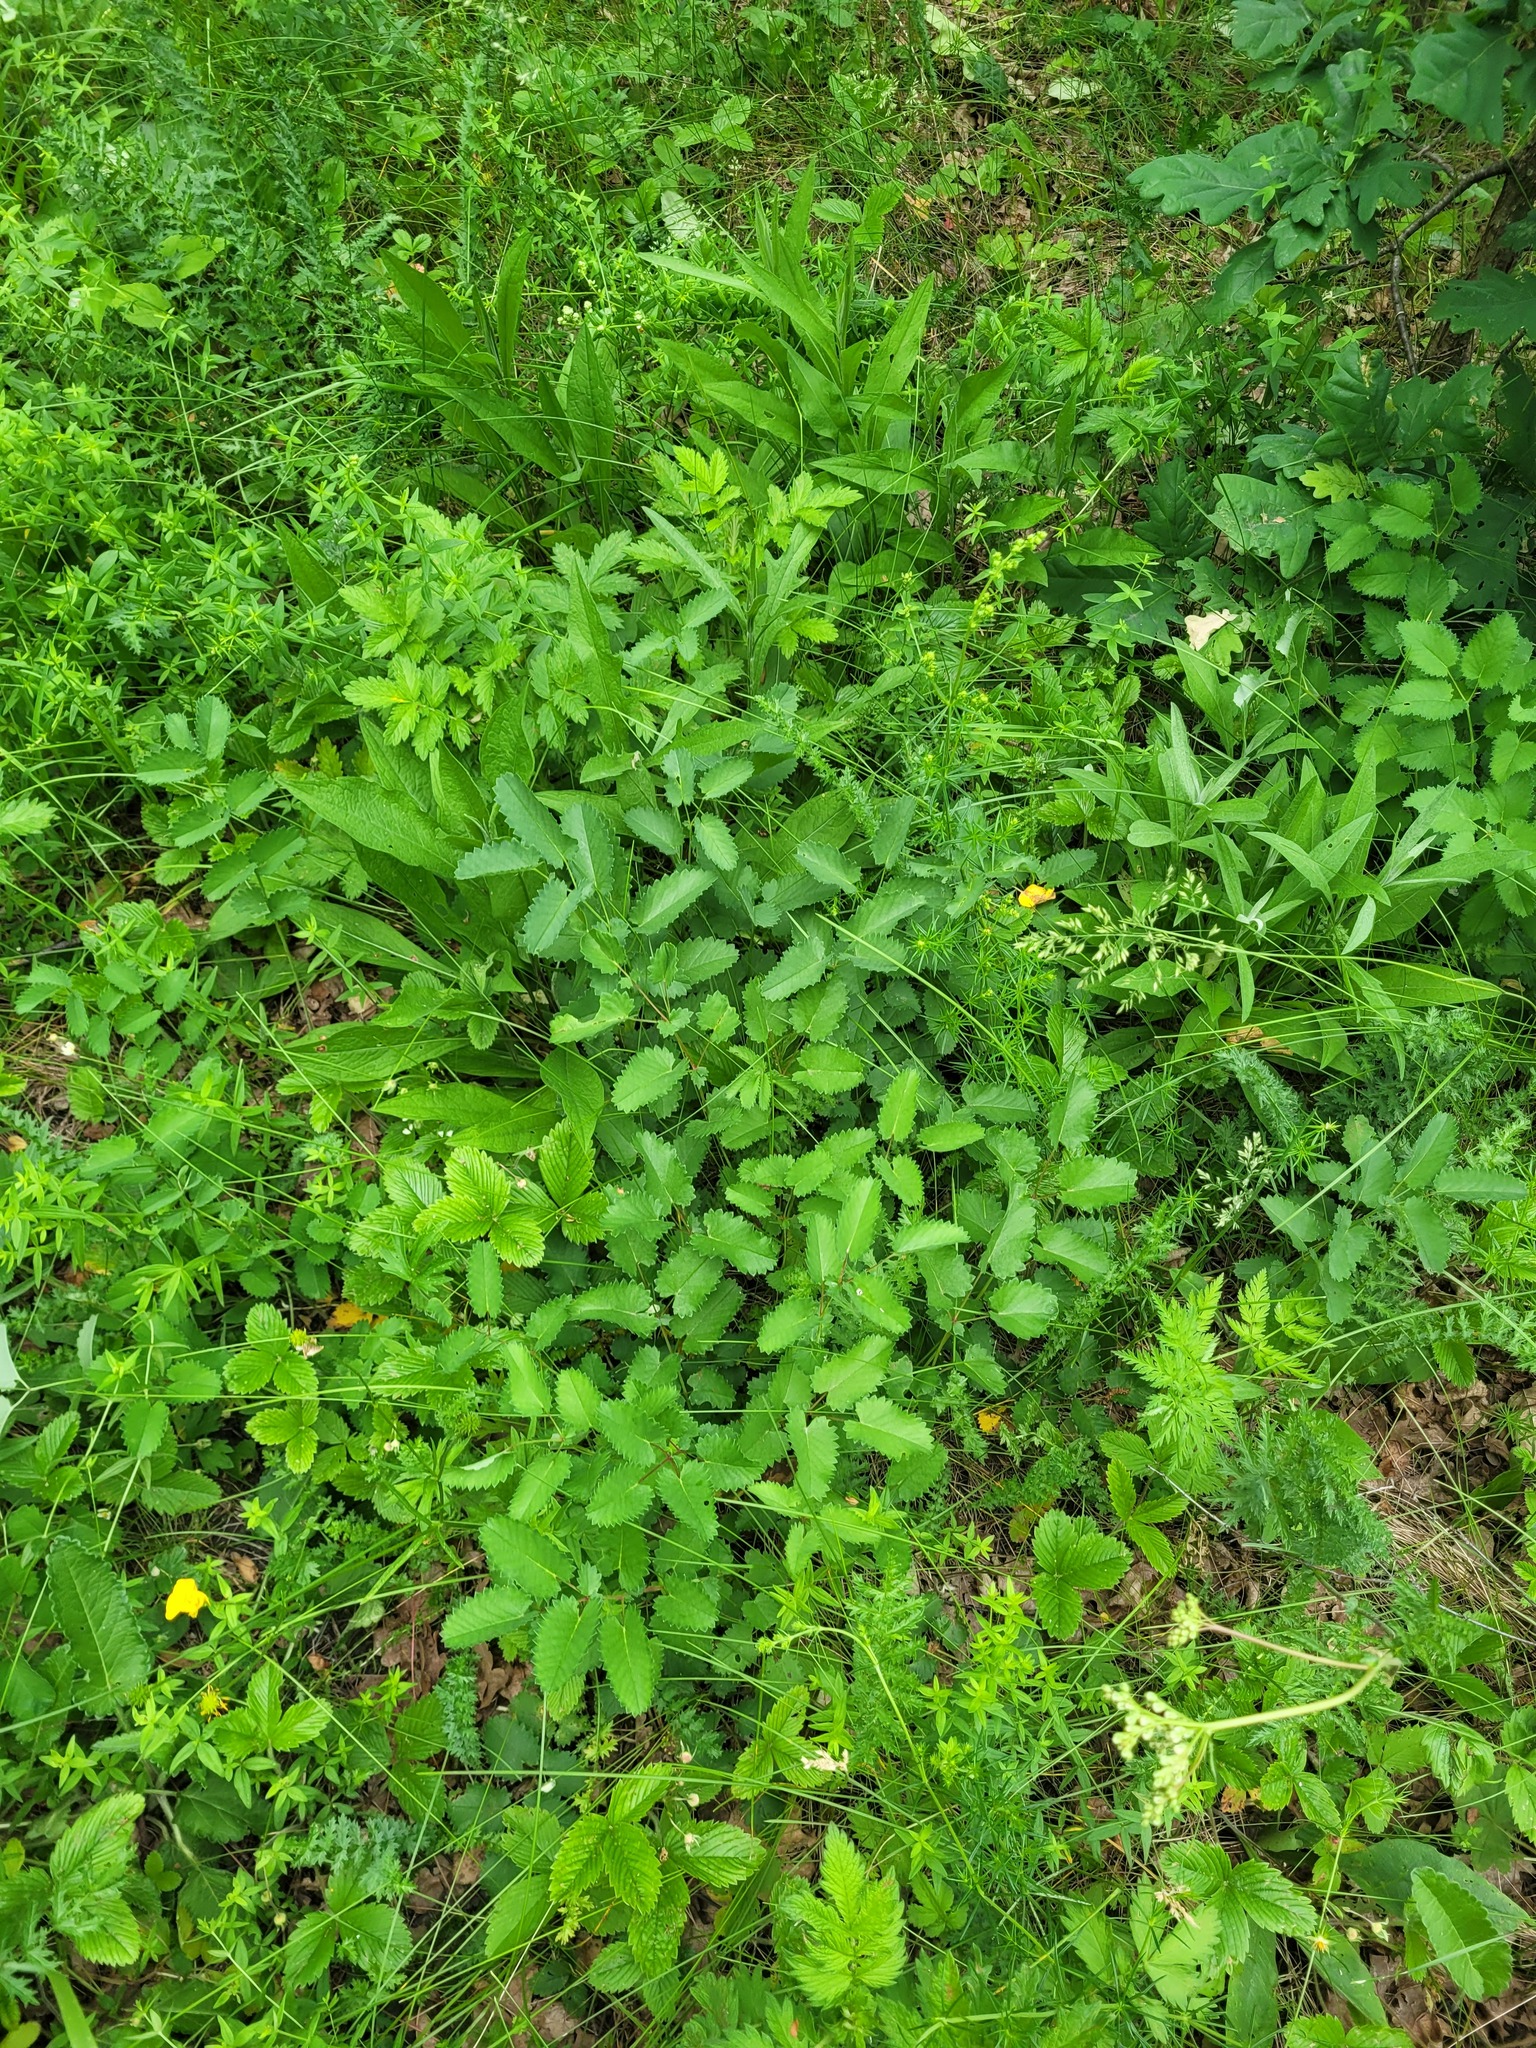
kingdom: Plantae
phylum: Tracheophyta
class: Magnoliopsida
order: Rosales
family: Rosaceae
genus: Sanguisorba
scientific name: Sanguisorba officinalis
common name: Great burnet
